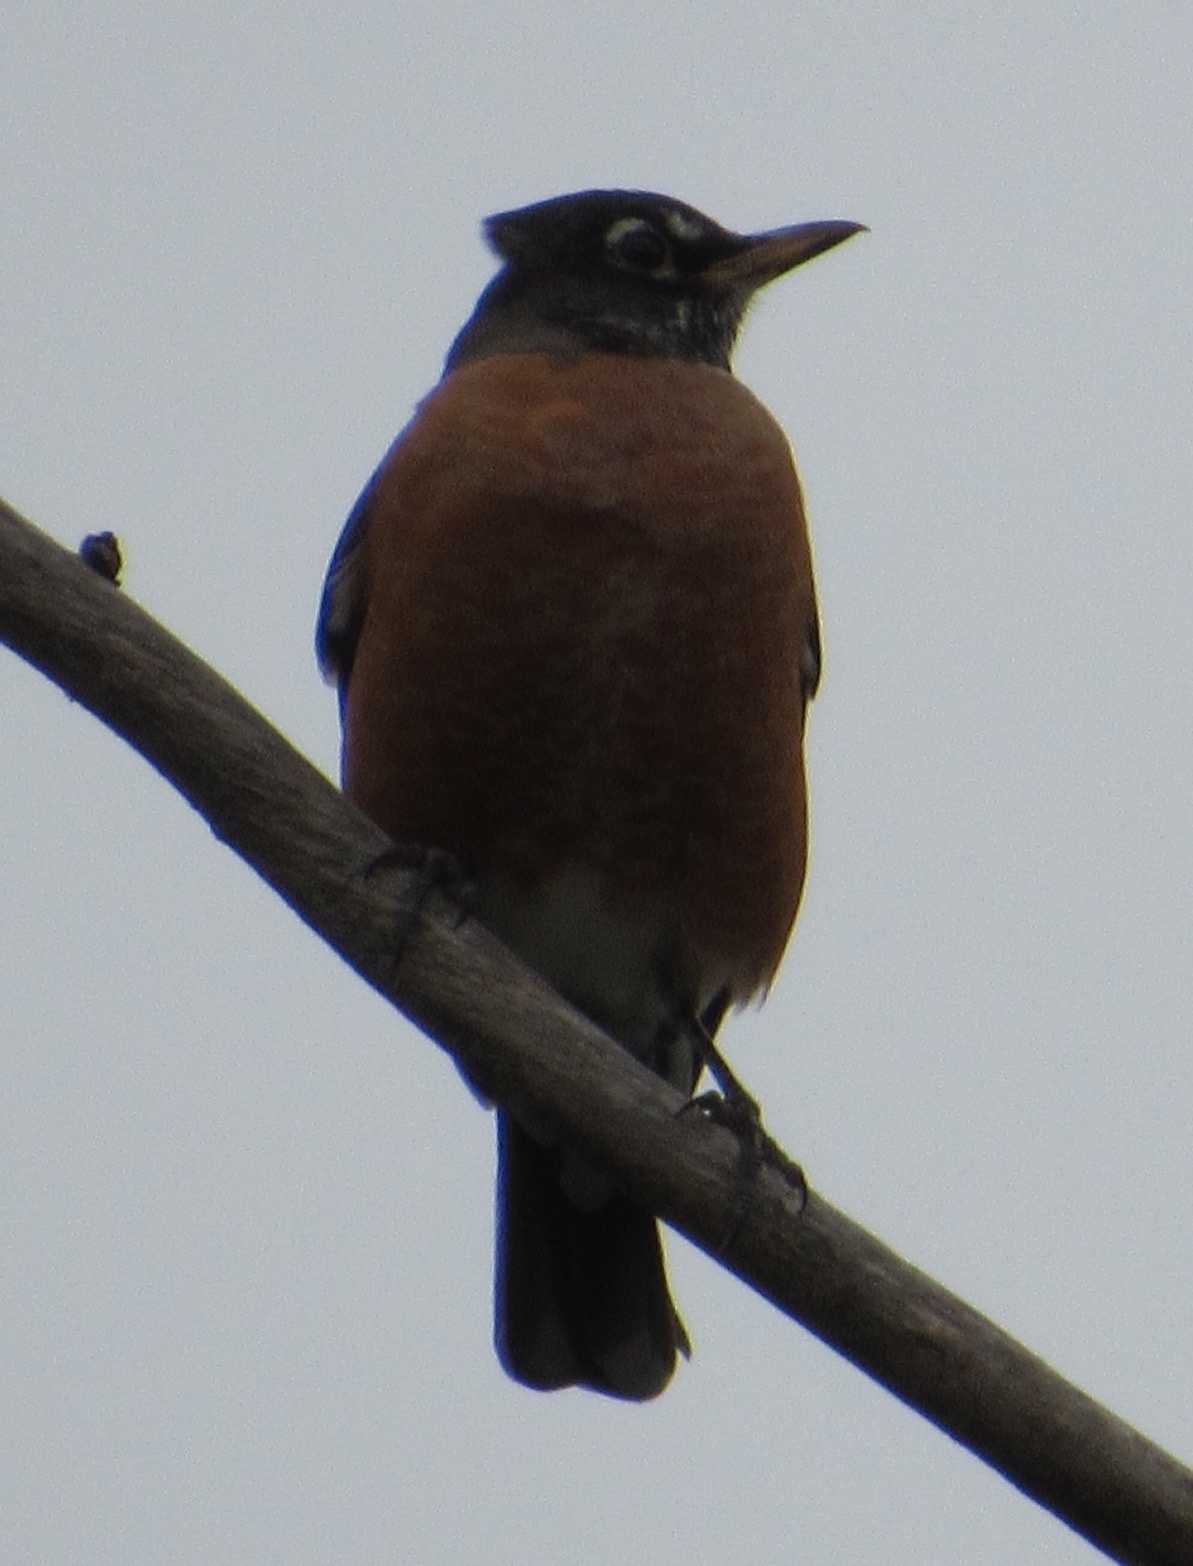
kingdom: Animalia
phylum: Chordata
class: Aves
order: Passeriformes
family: Turdidae
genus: Turdus
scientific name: Turdus migratorius
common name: American robin
